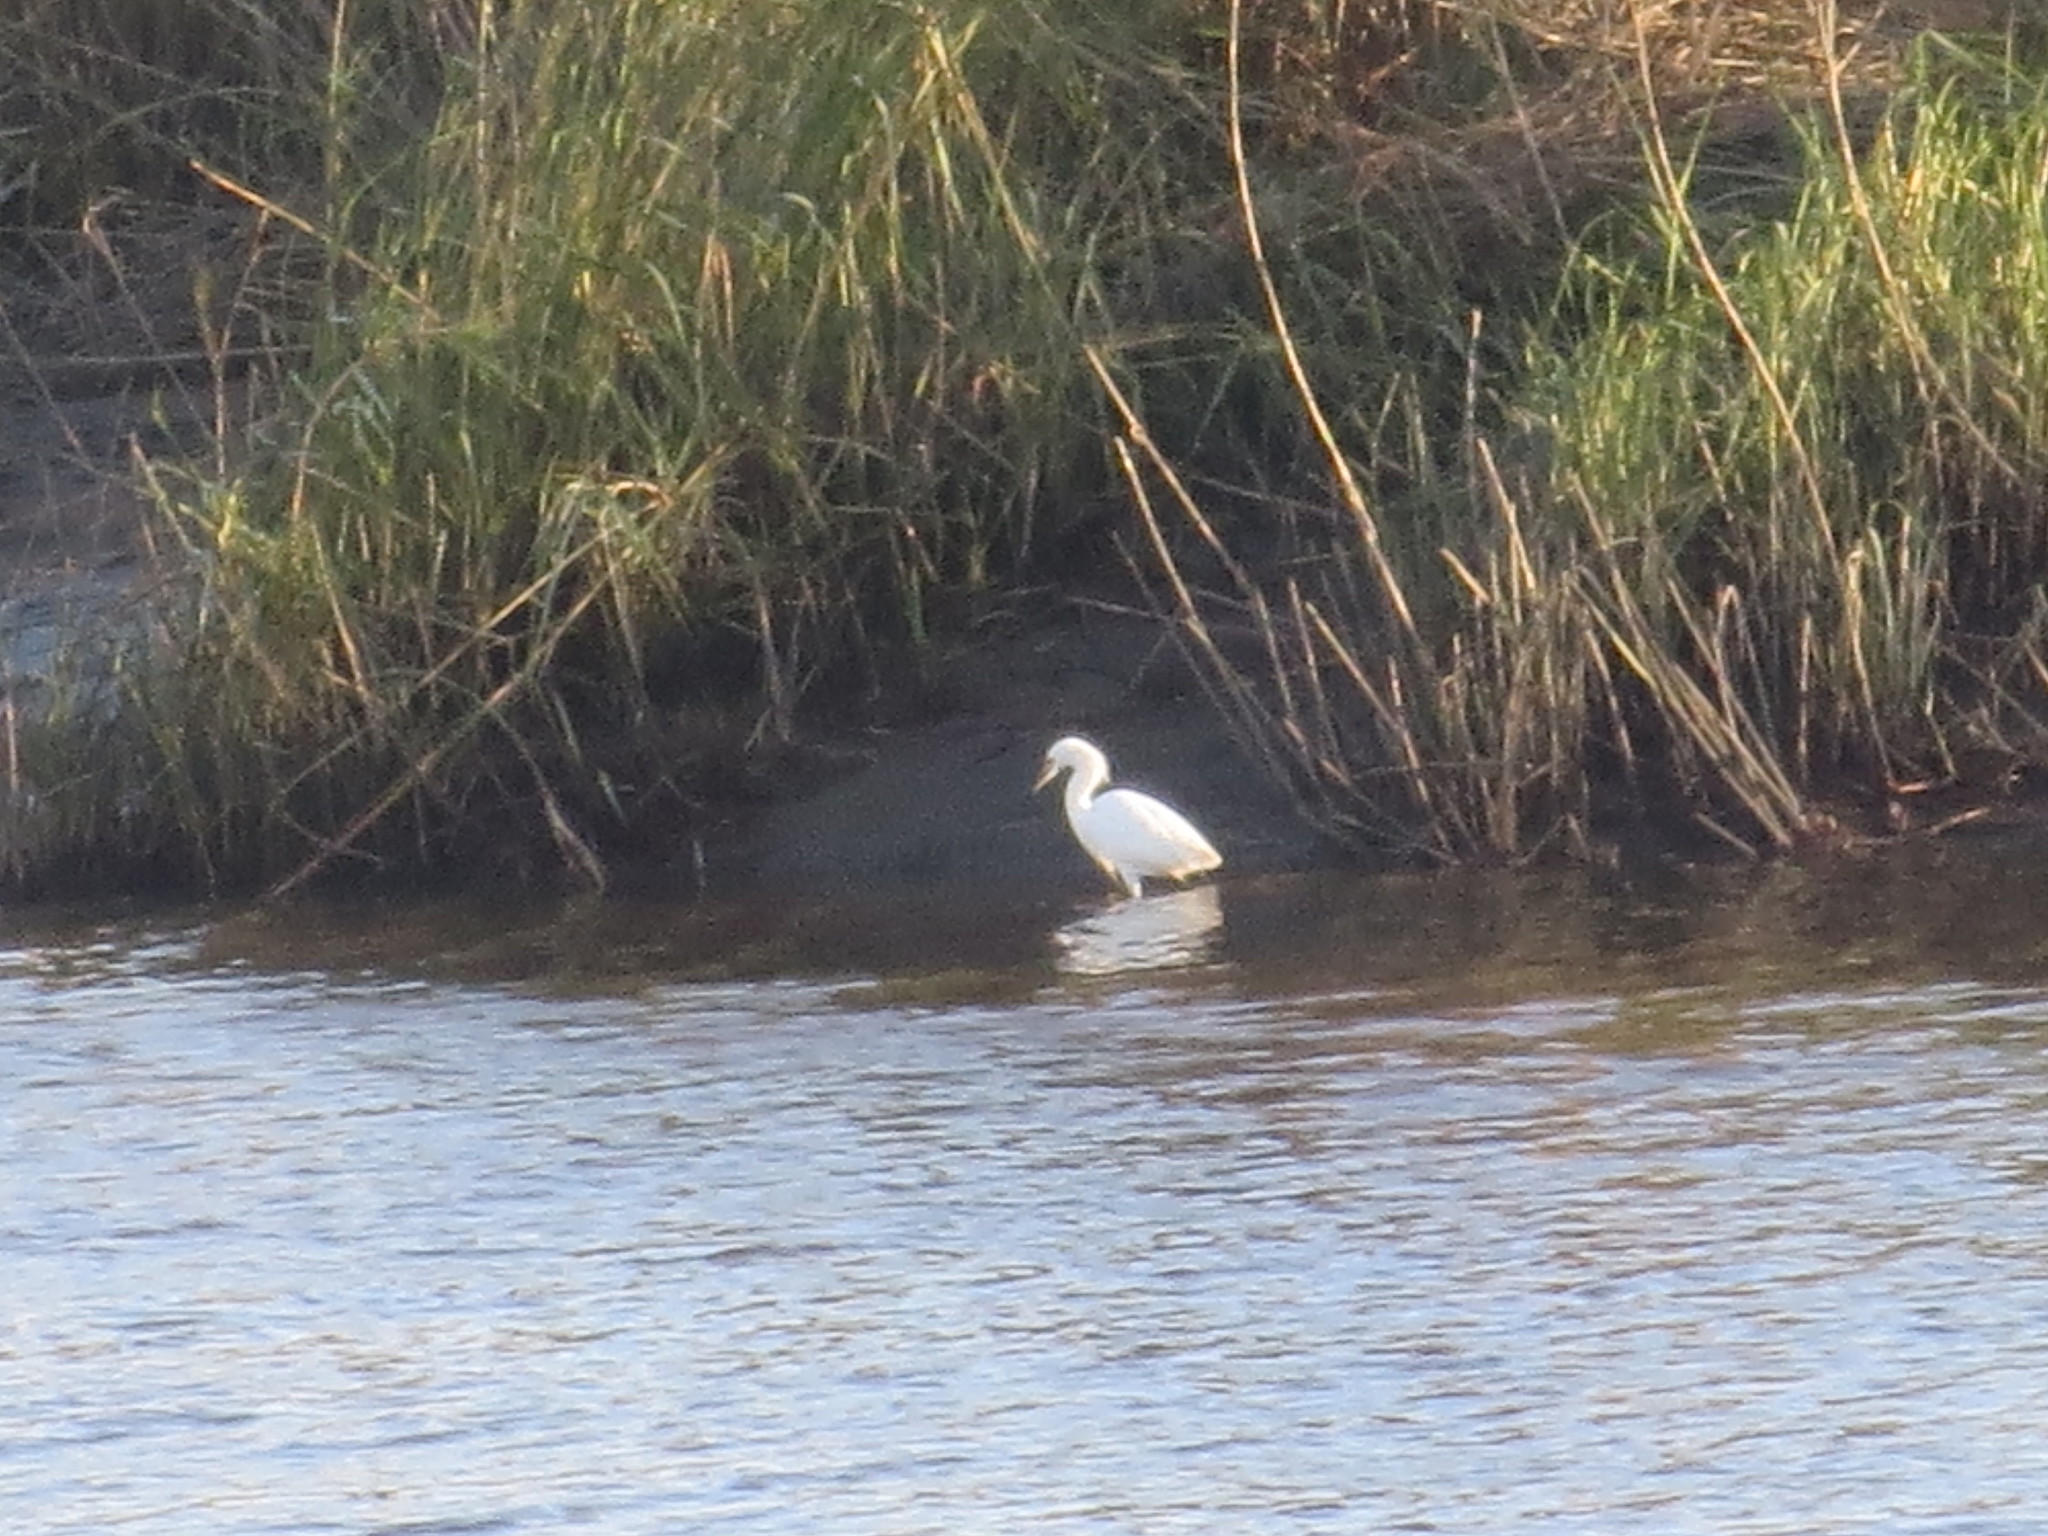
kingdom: Animalia
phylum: Chordata
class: Aves
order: Pelecaniformes
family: Ardeidae
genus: Egretta
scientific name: Egretta thula
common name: Snowy egret
